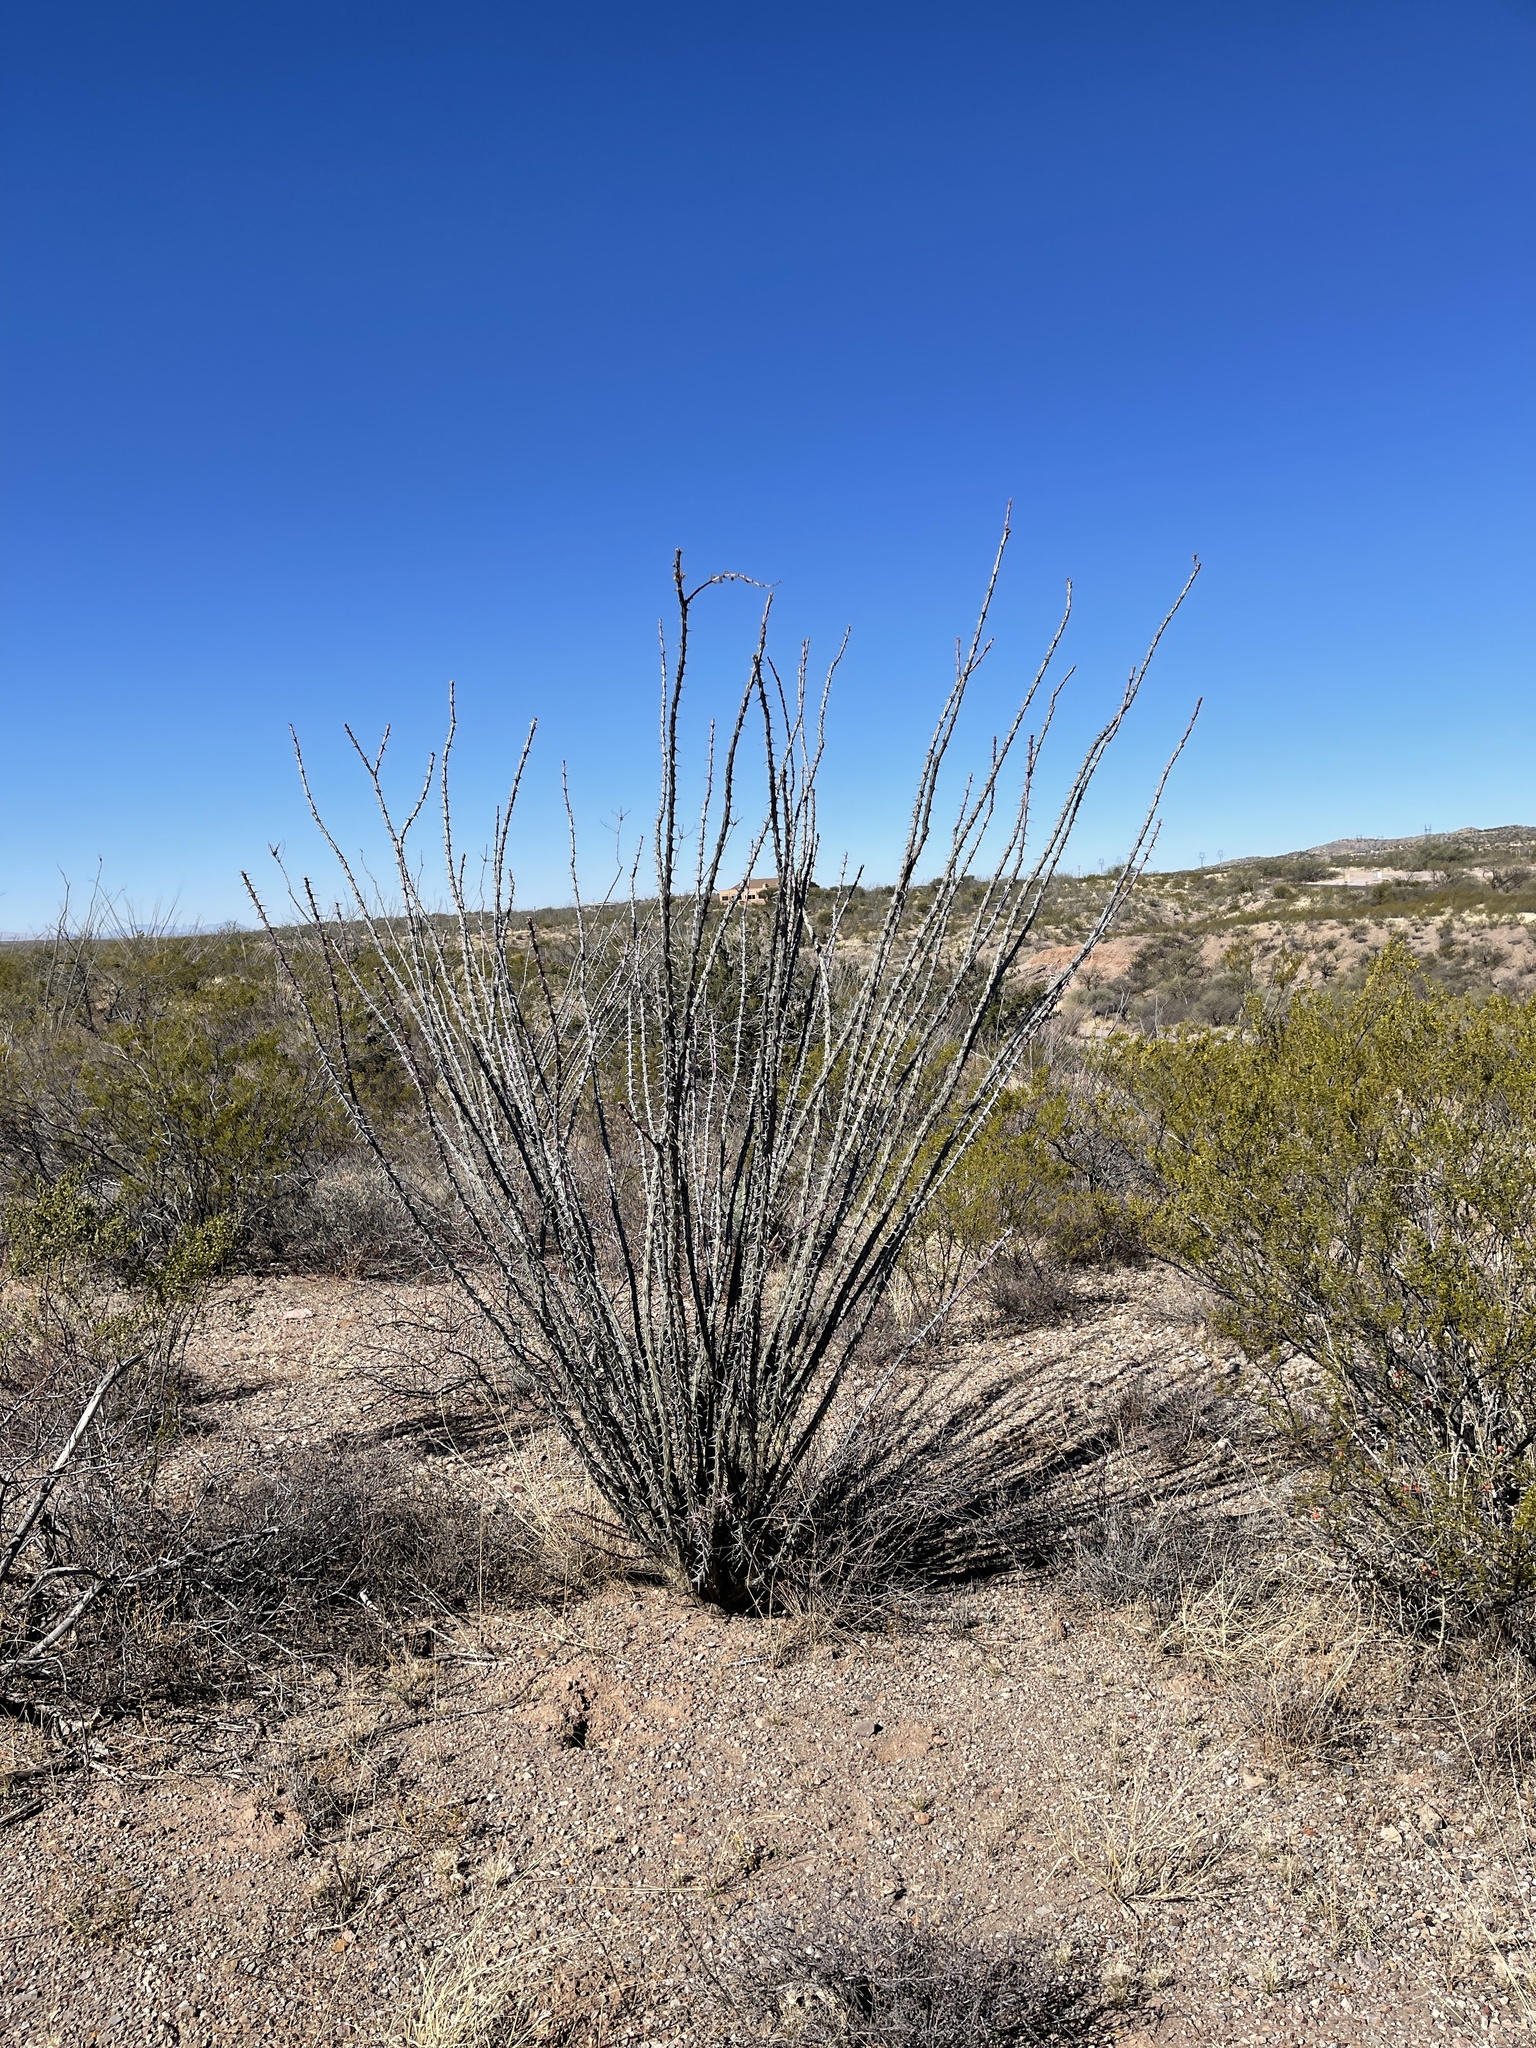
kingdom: Plantae
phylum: Tracheophyta
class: Magnoliopsida
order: Ericales
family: Fouquieriaceae
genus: Fouquieria
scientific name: Fouquieria splendens
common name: Vine-cactus
